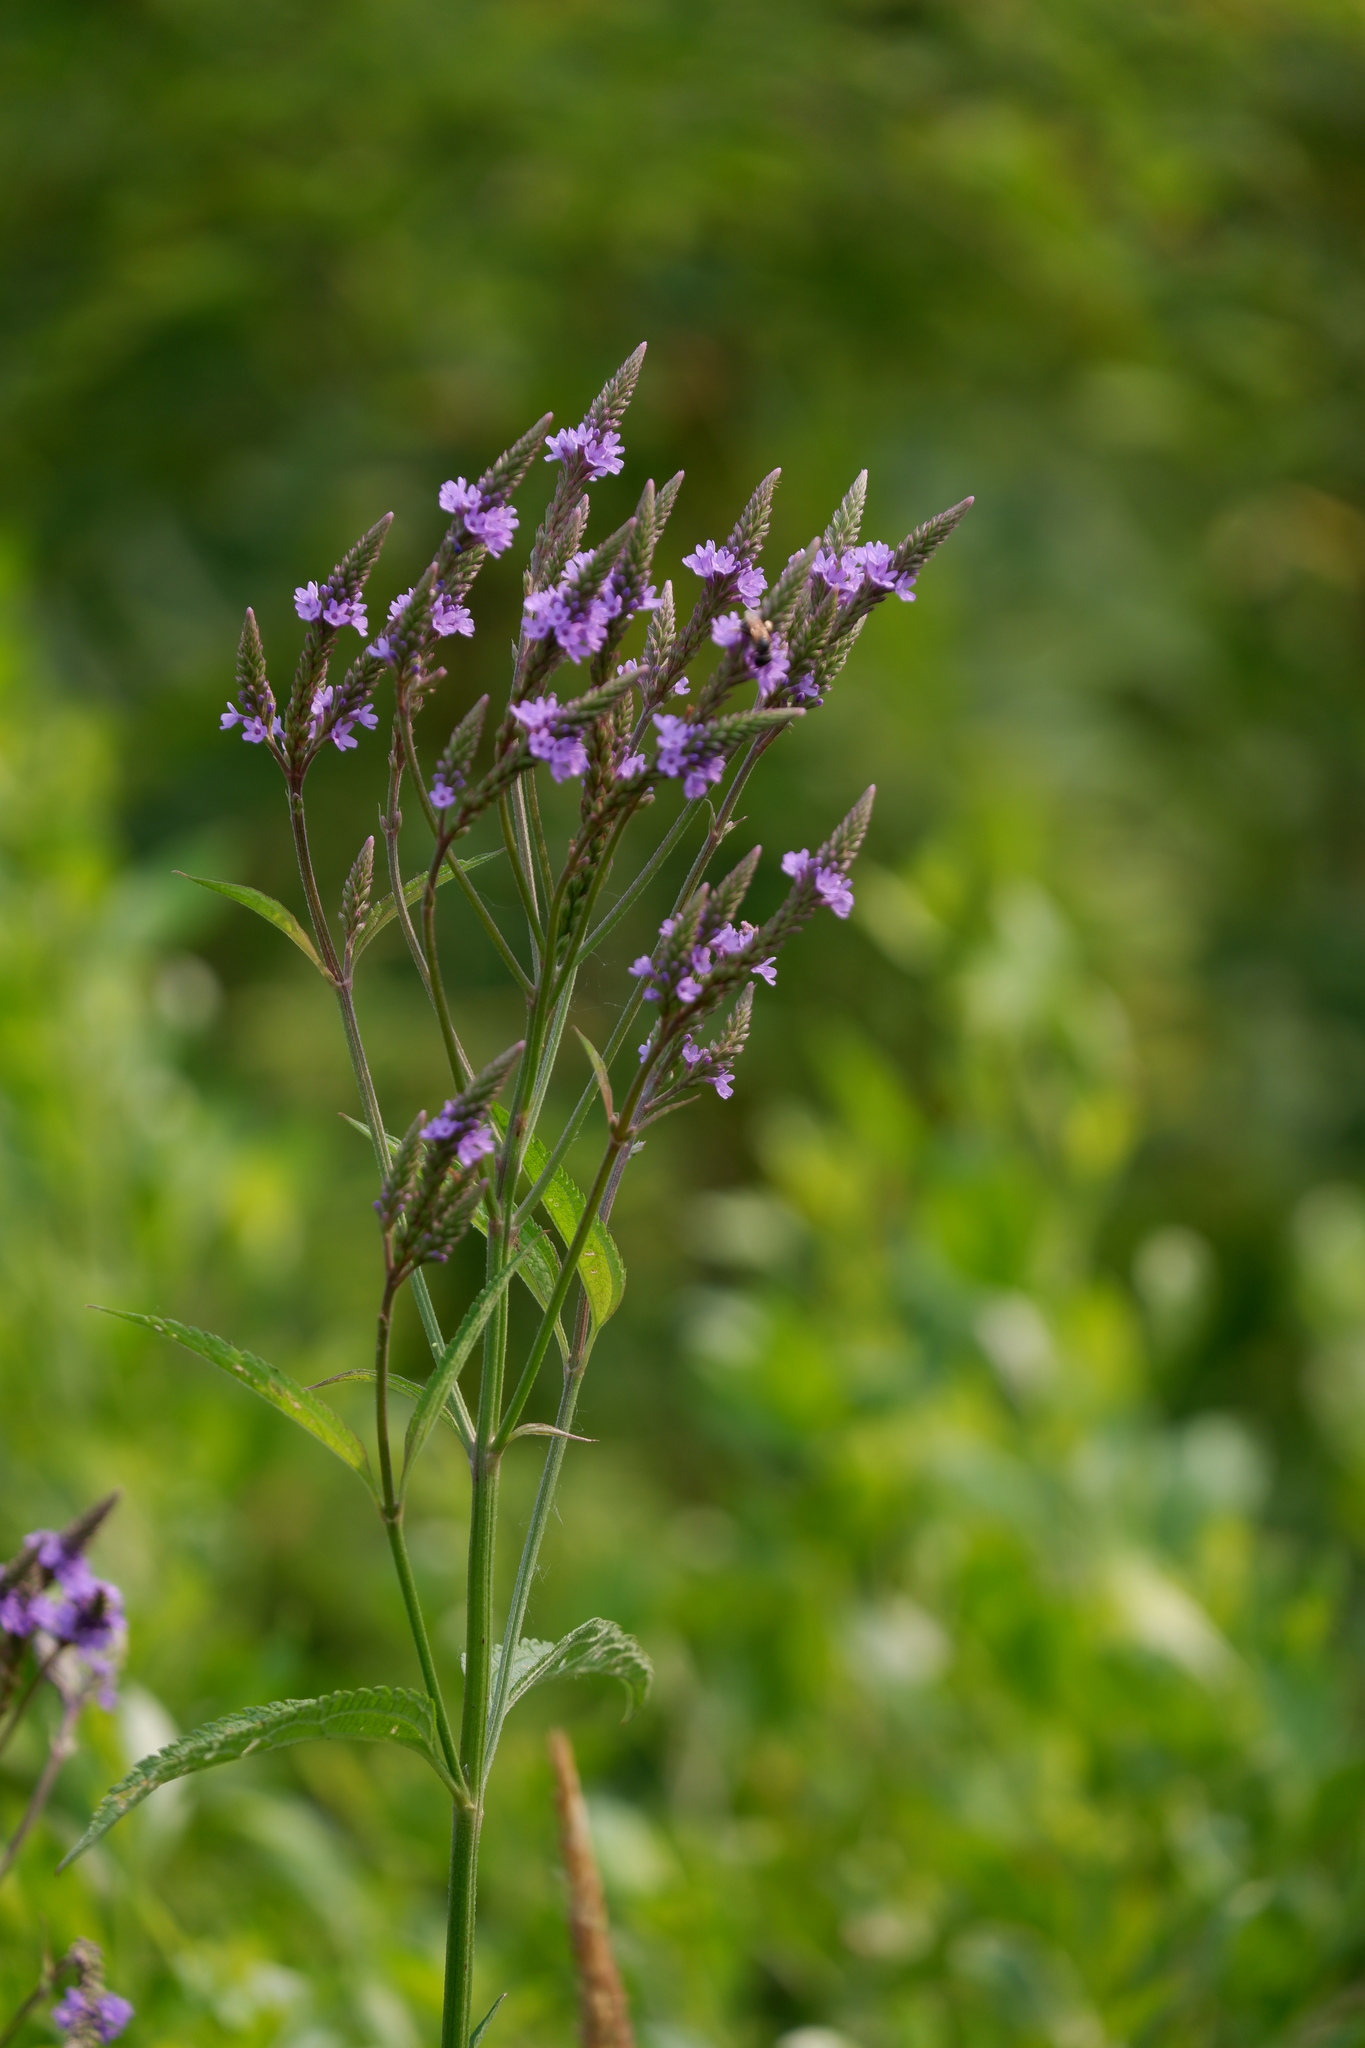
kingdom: Plantae
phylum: Tracheophyta
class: Magnoliopsida
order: Lamiales
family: Verbenaceae
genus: Verbena
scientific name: Verbena hastata
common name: American blue vervain
